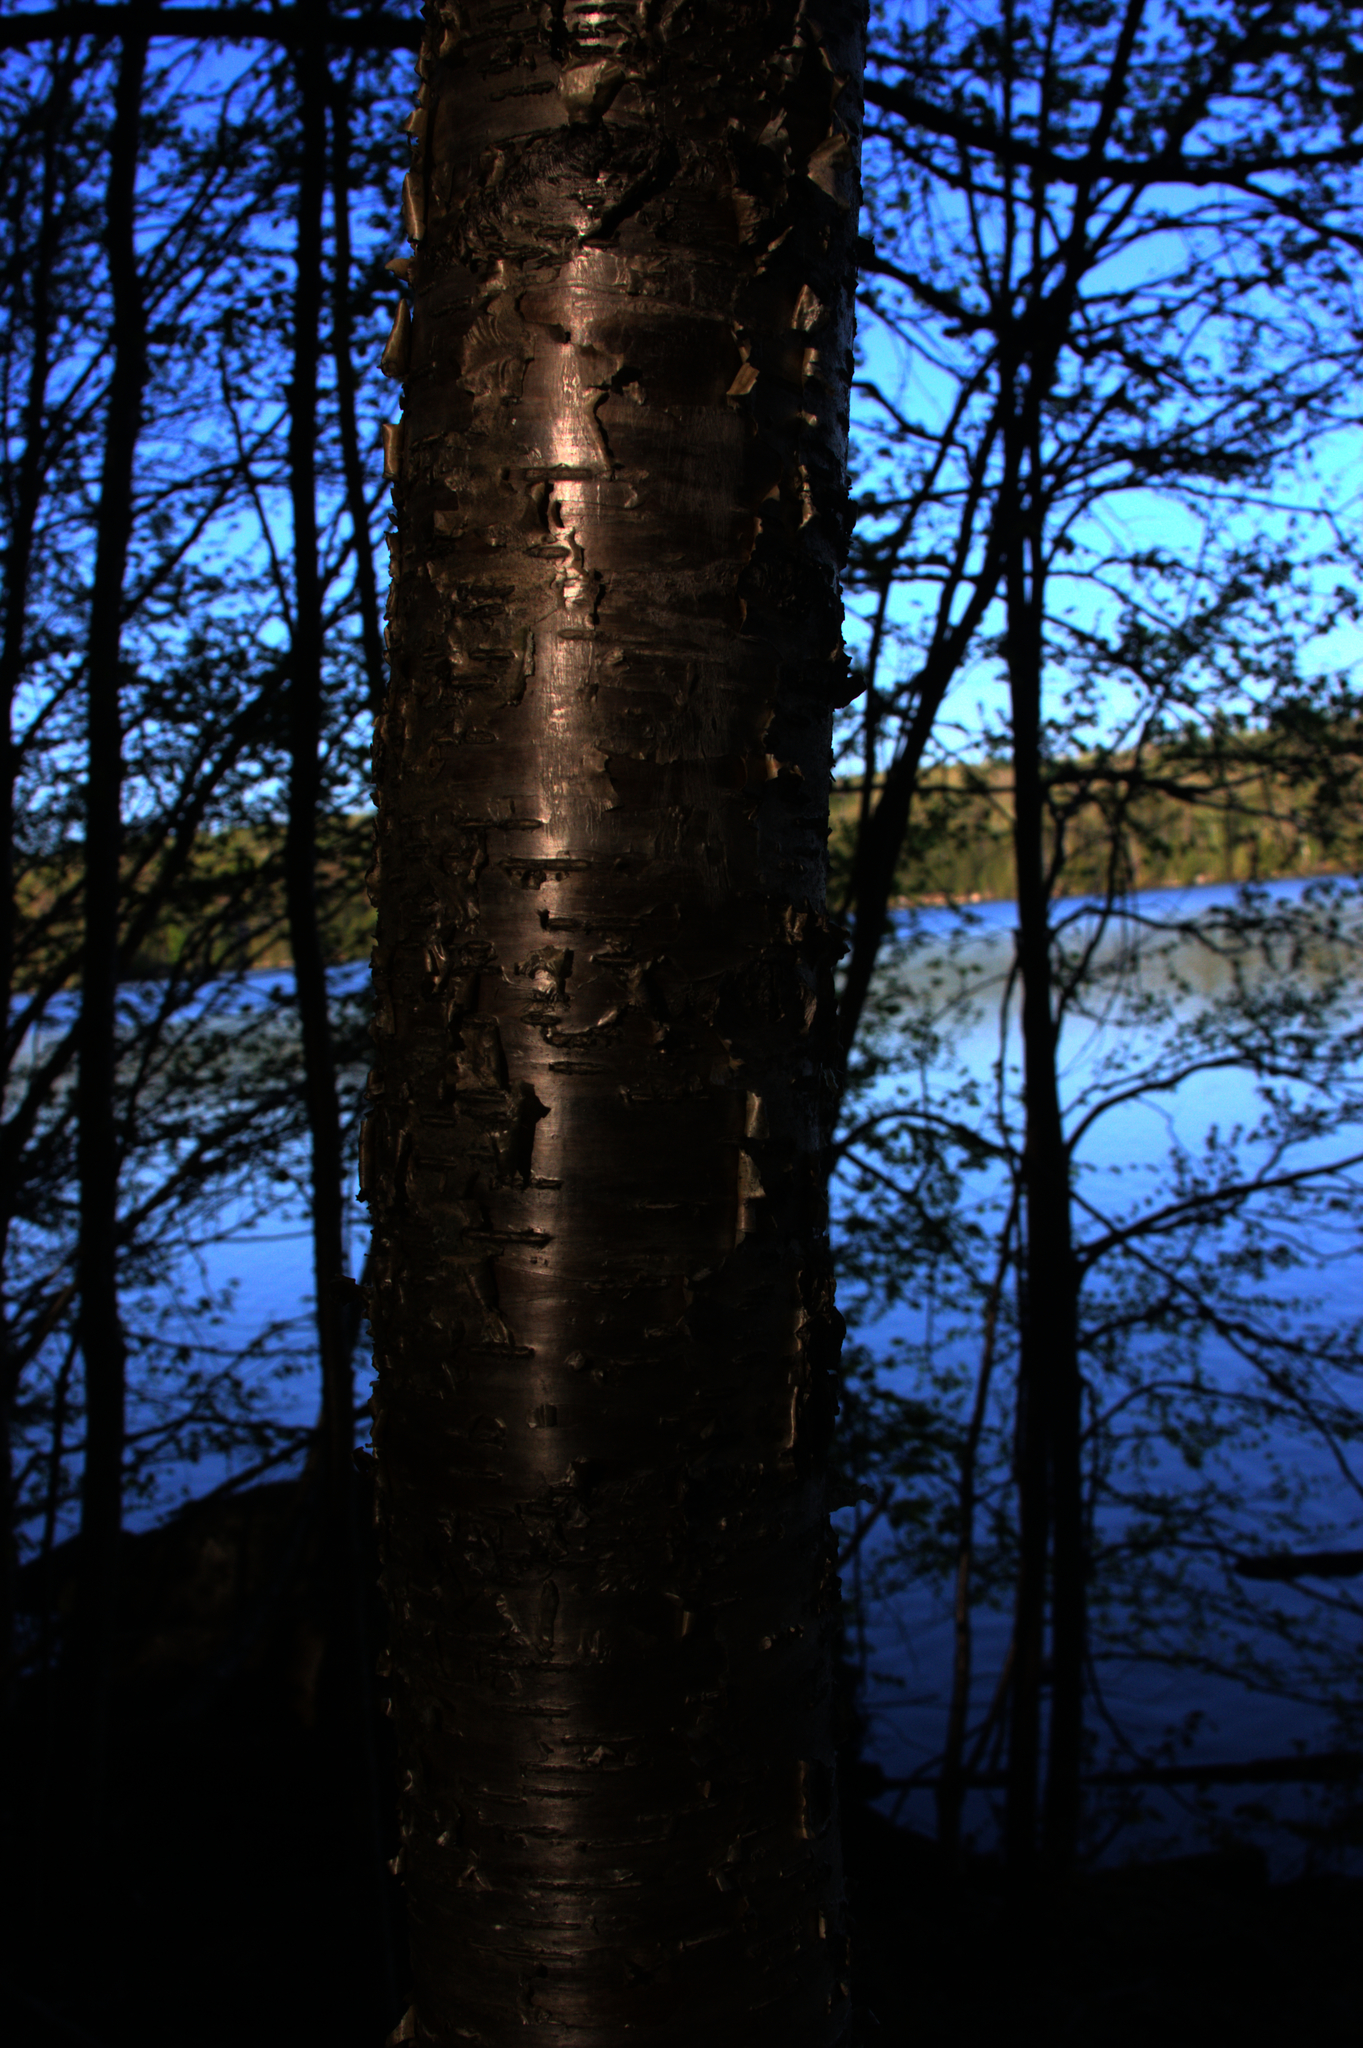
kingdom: Plantae
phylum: Tracheophyta
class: Magnoliopsida
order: Fagales
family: Betulaceae
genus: Betula
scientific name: Betula alleghaniensis
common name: Yellow birch
